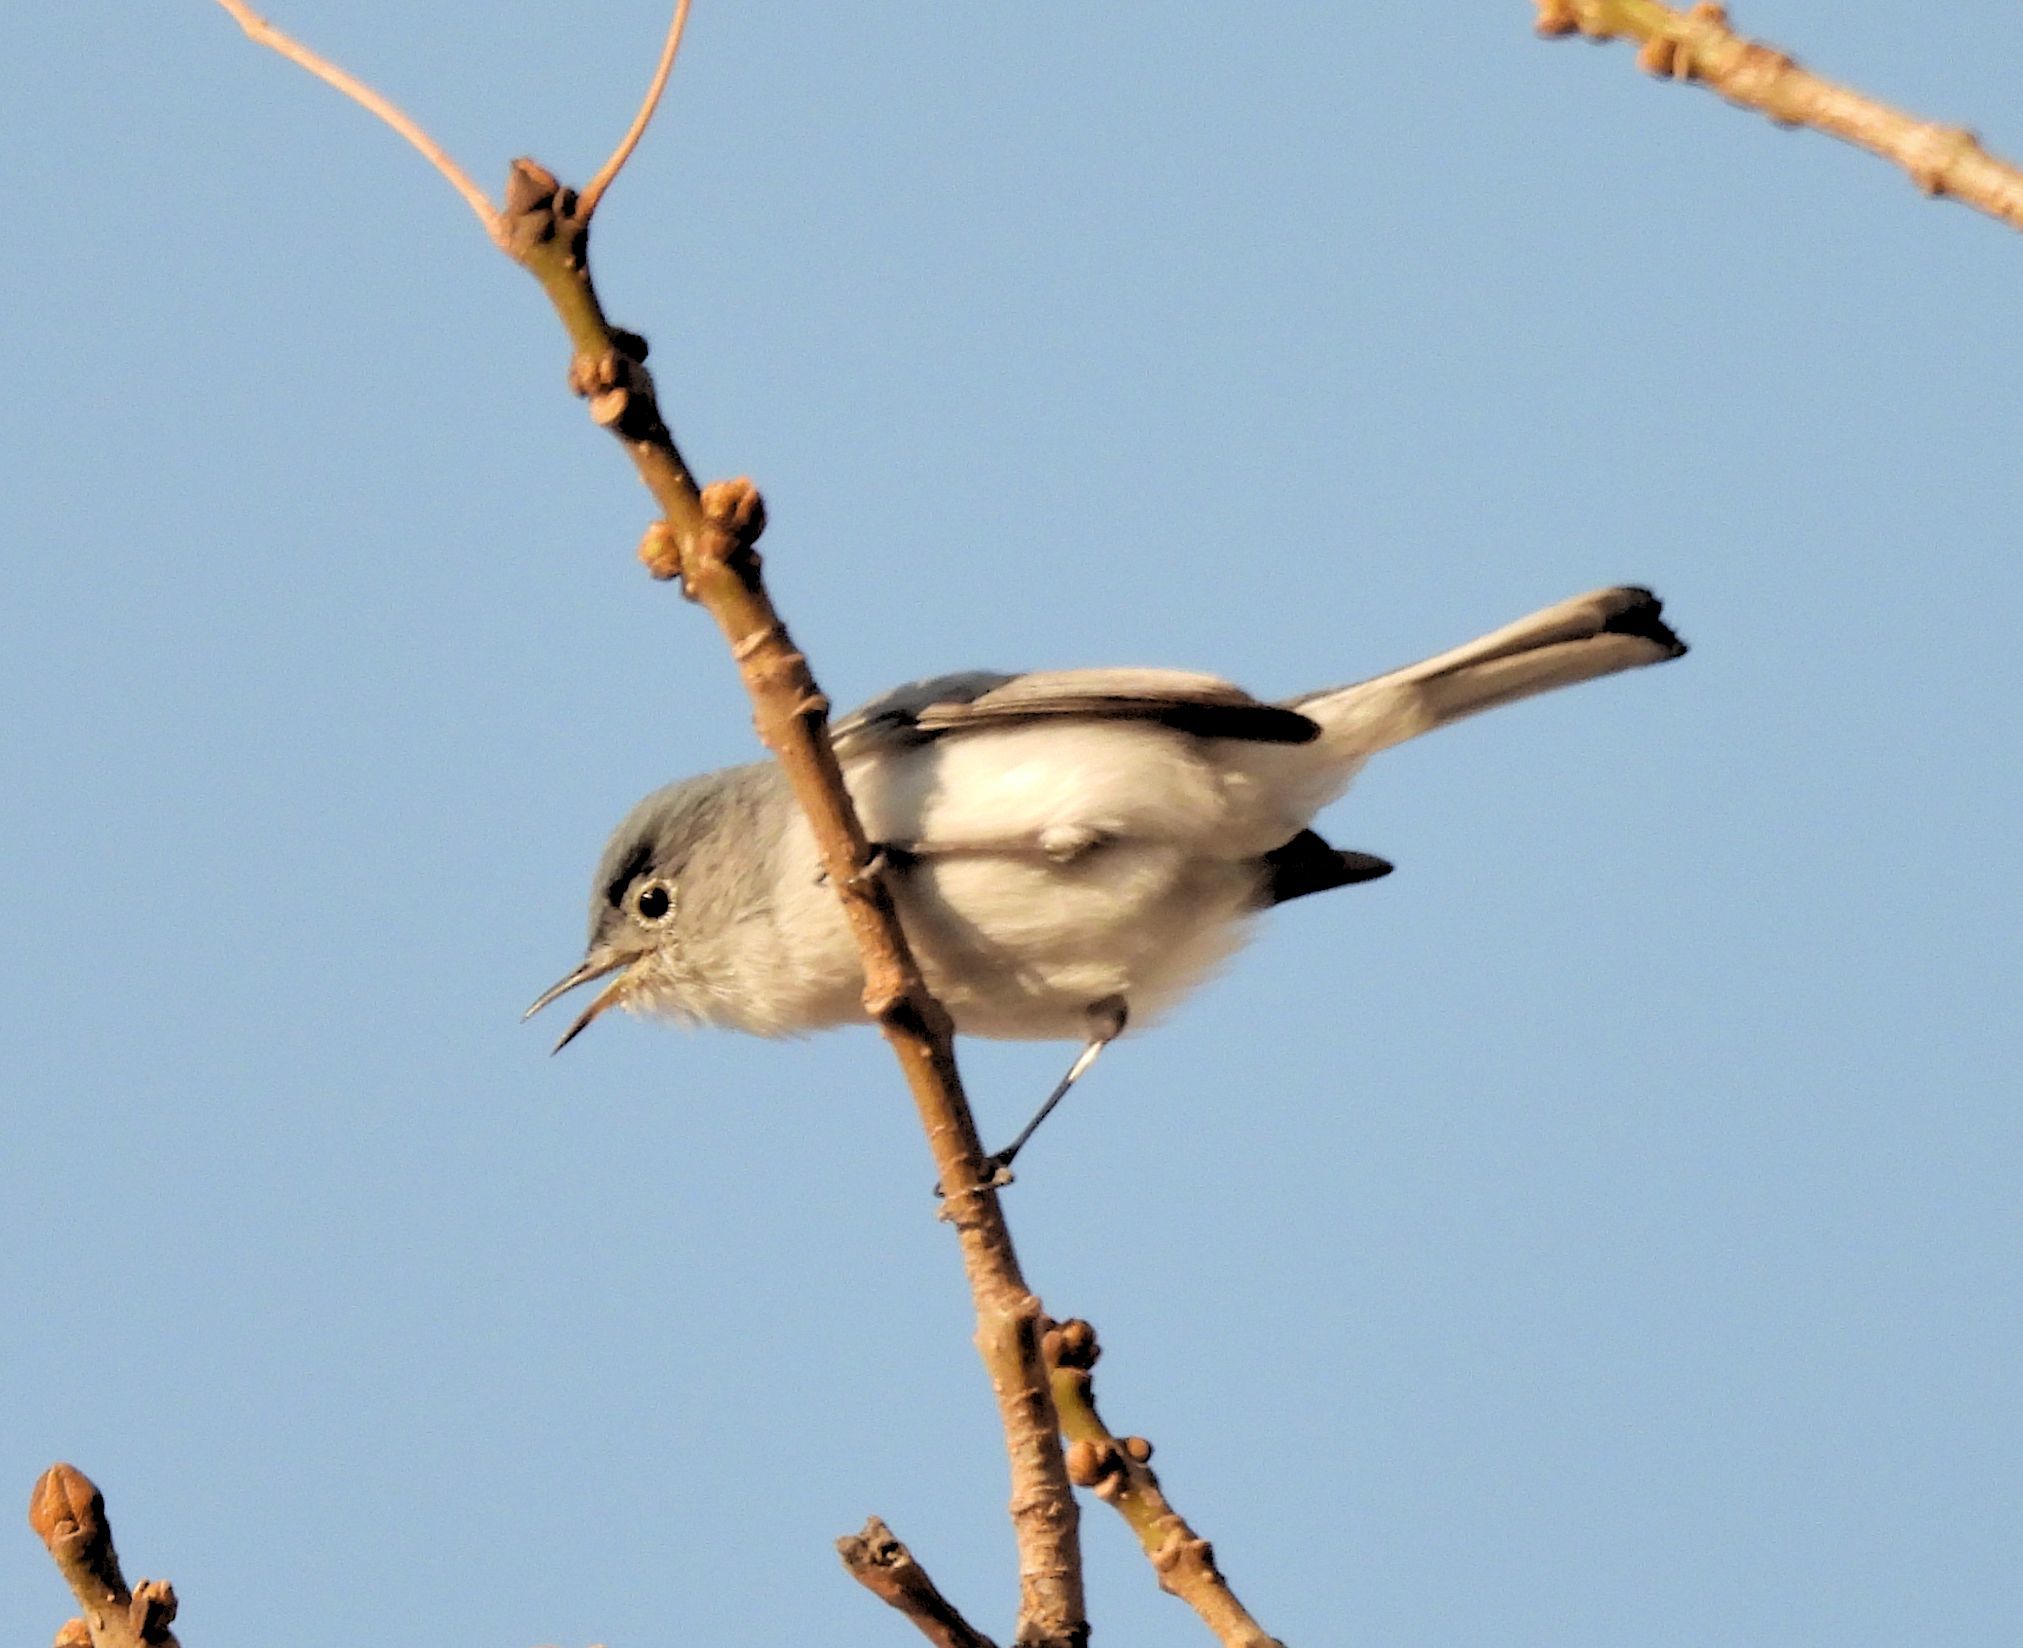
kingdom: Animalia
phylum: Chordata
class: Aves
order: Passeriformes
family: Polioptilidae
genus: Polioptila
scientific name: Polioptila caerulea
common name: Blue-gray gnatcatcher
